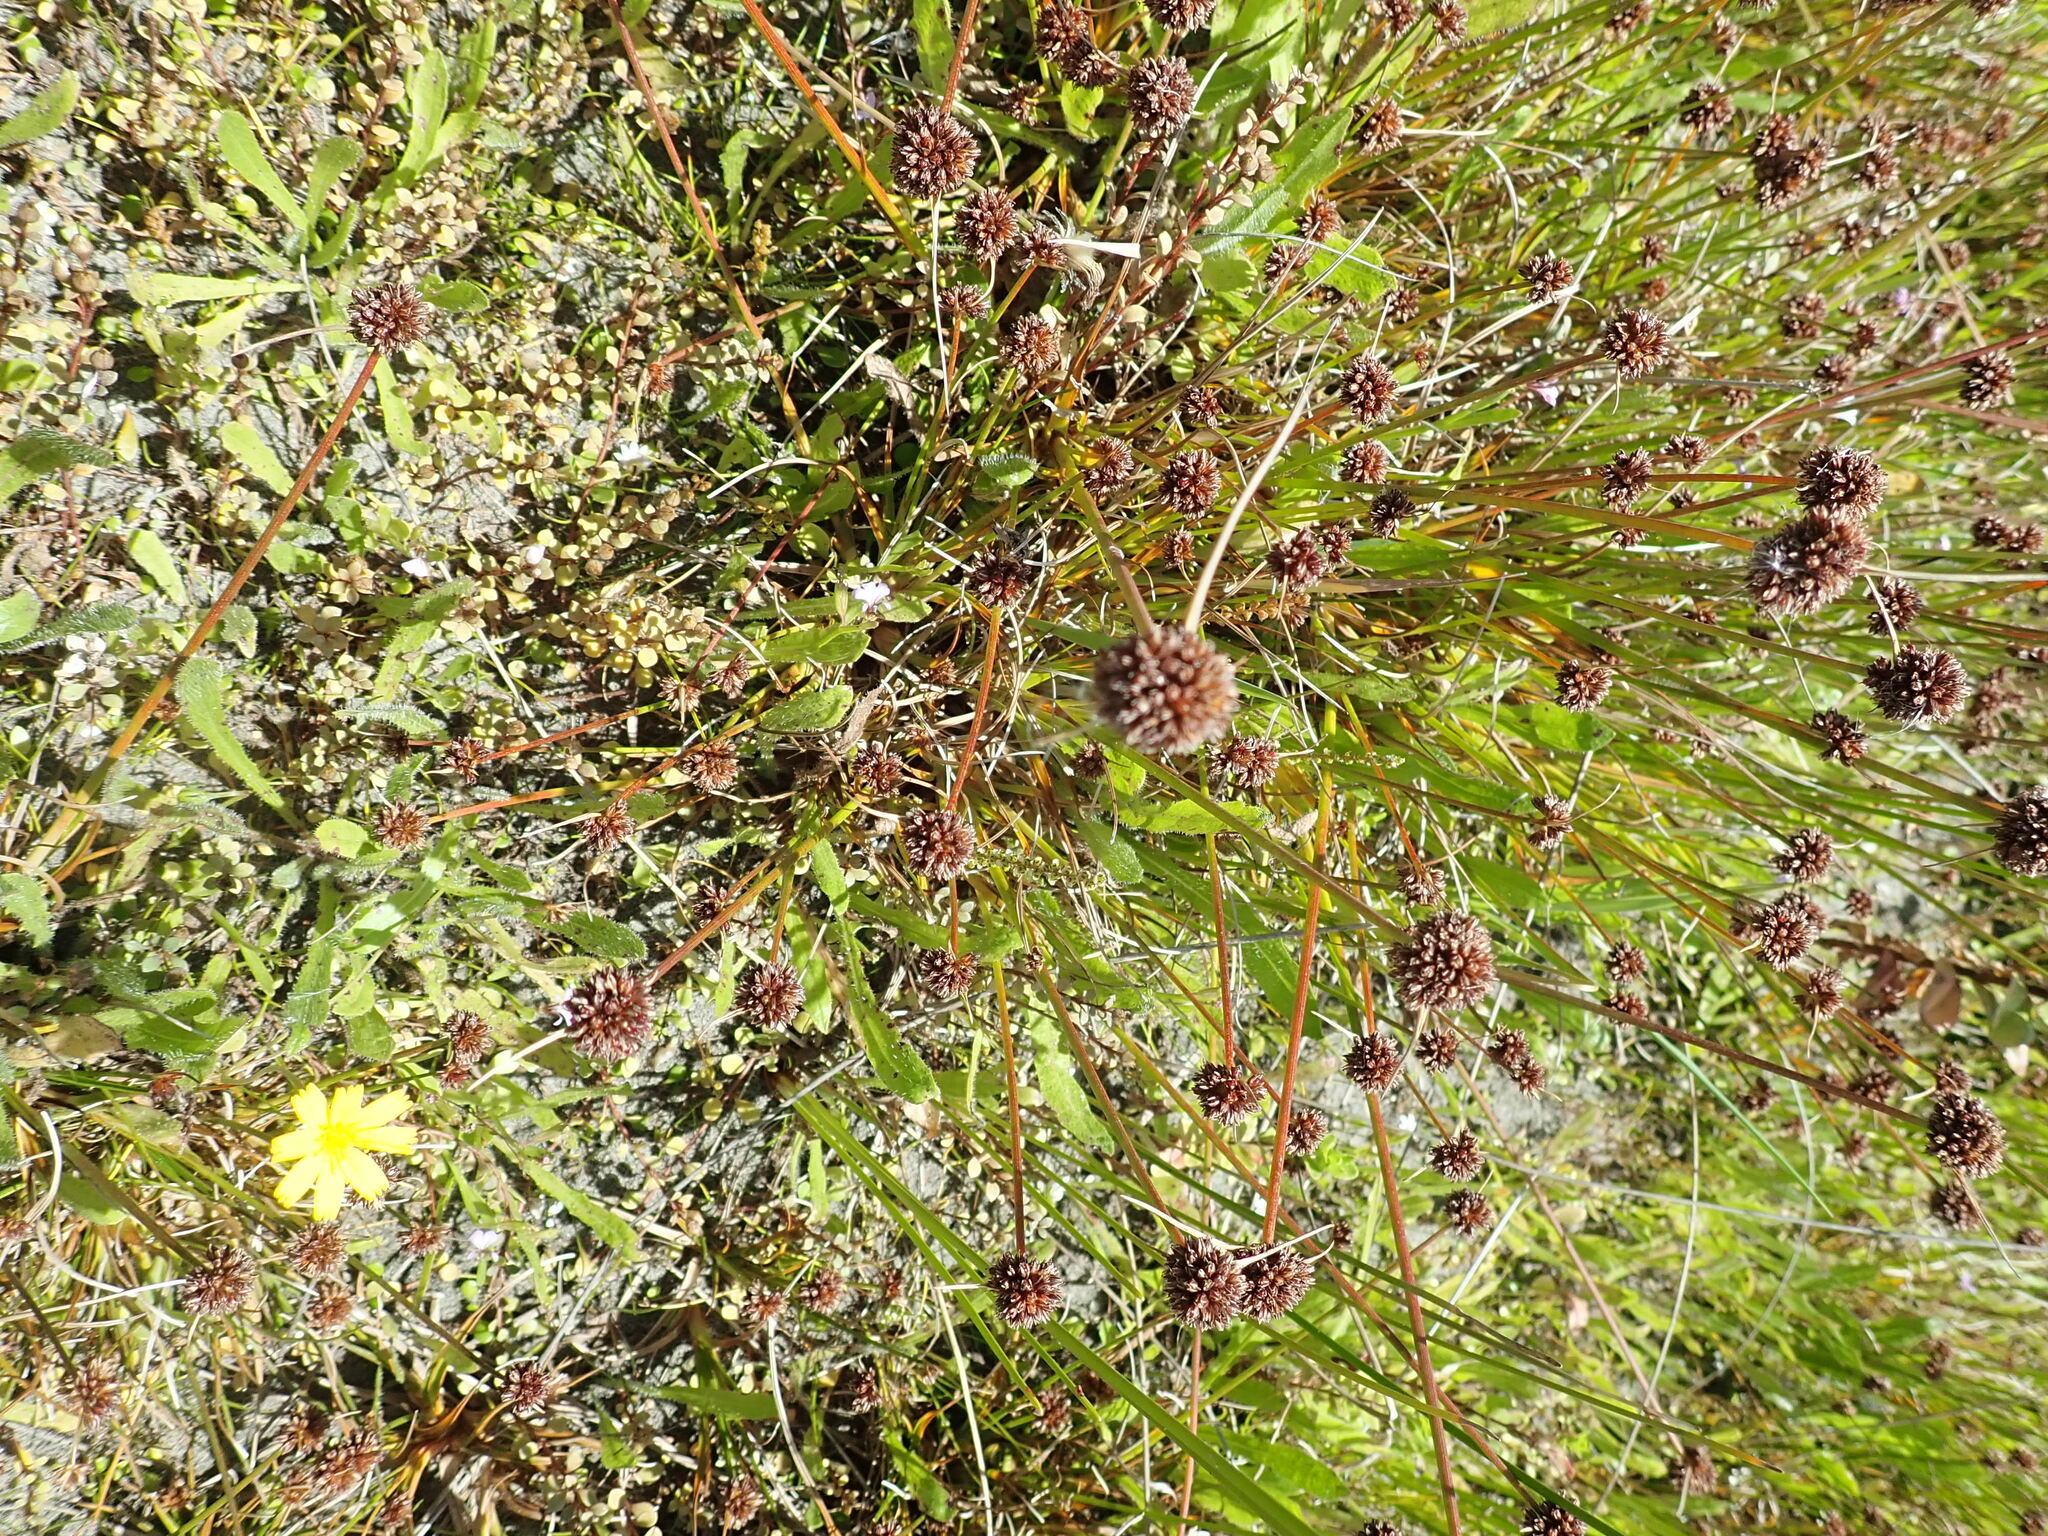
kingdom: Plantae
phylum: Tracheophyta
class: Liliopsida
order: Poales
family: Juncaceae
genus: Juncus
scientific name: Juncus caespiticius
